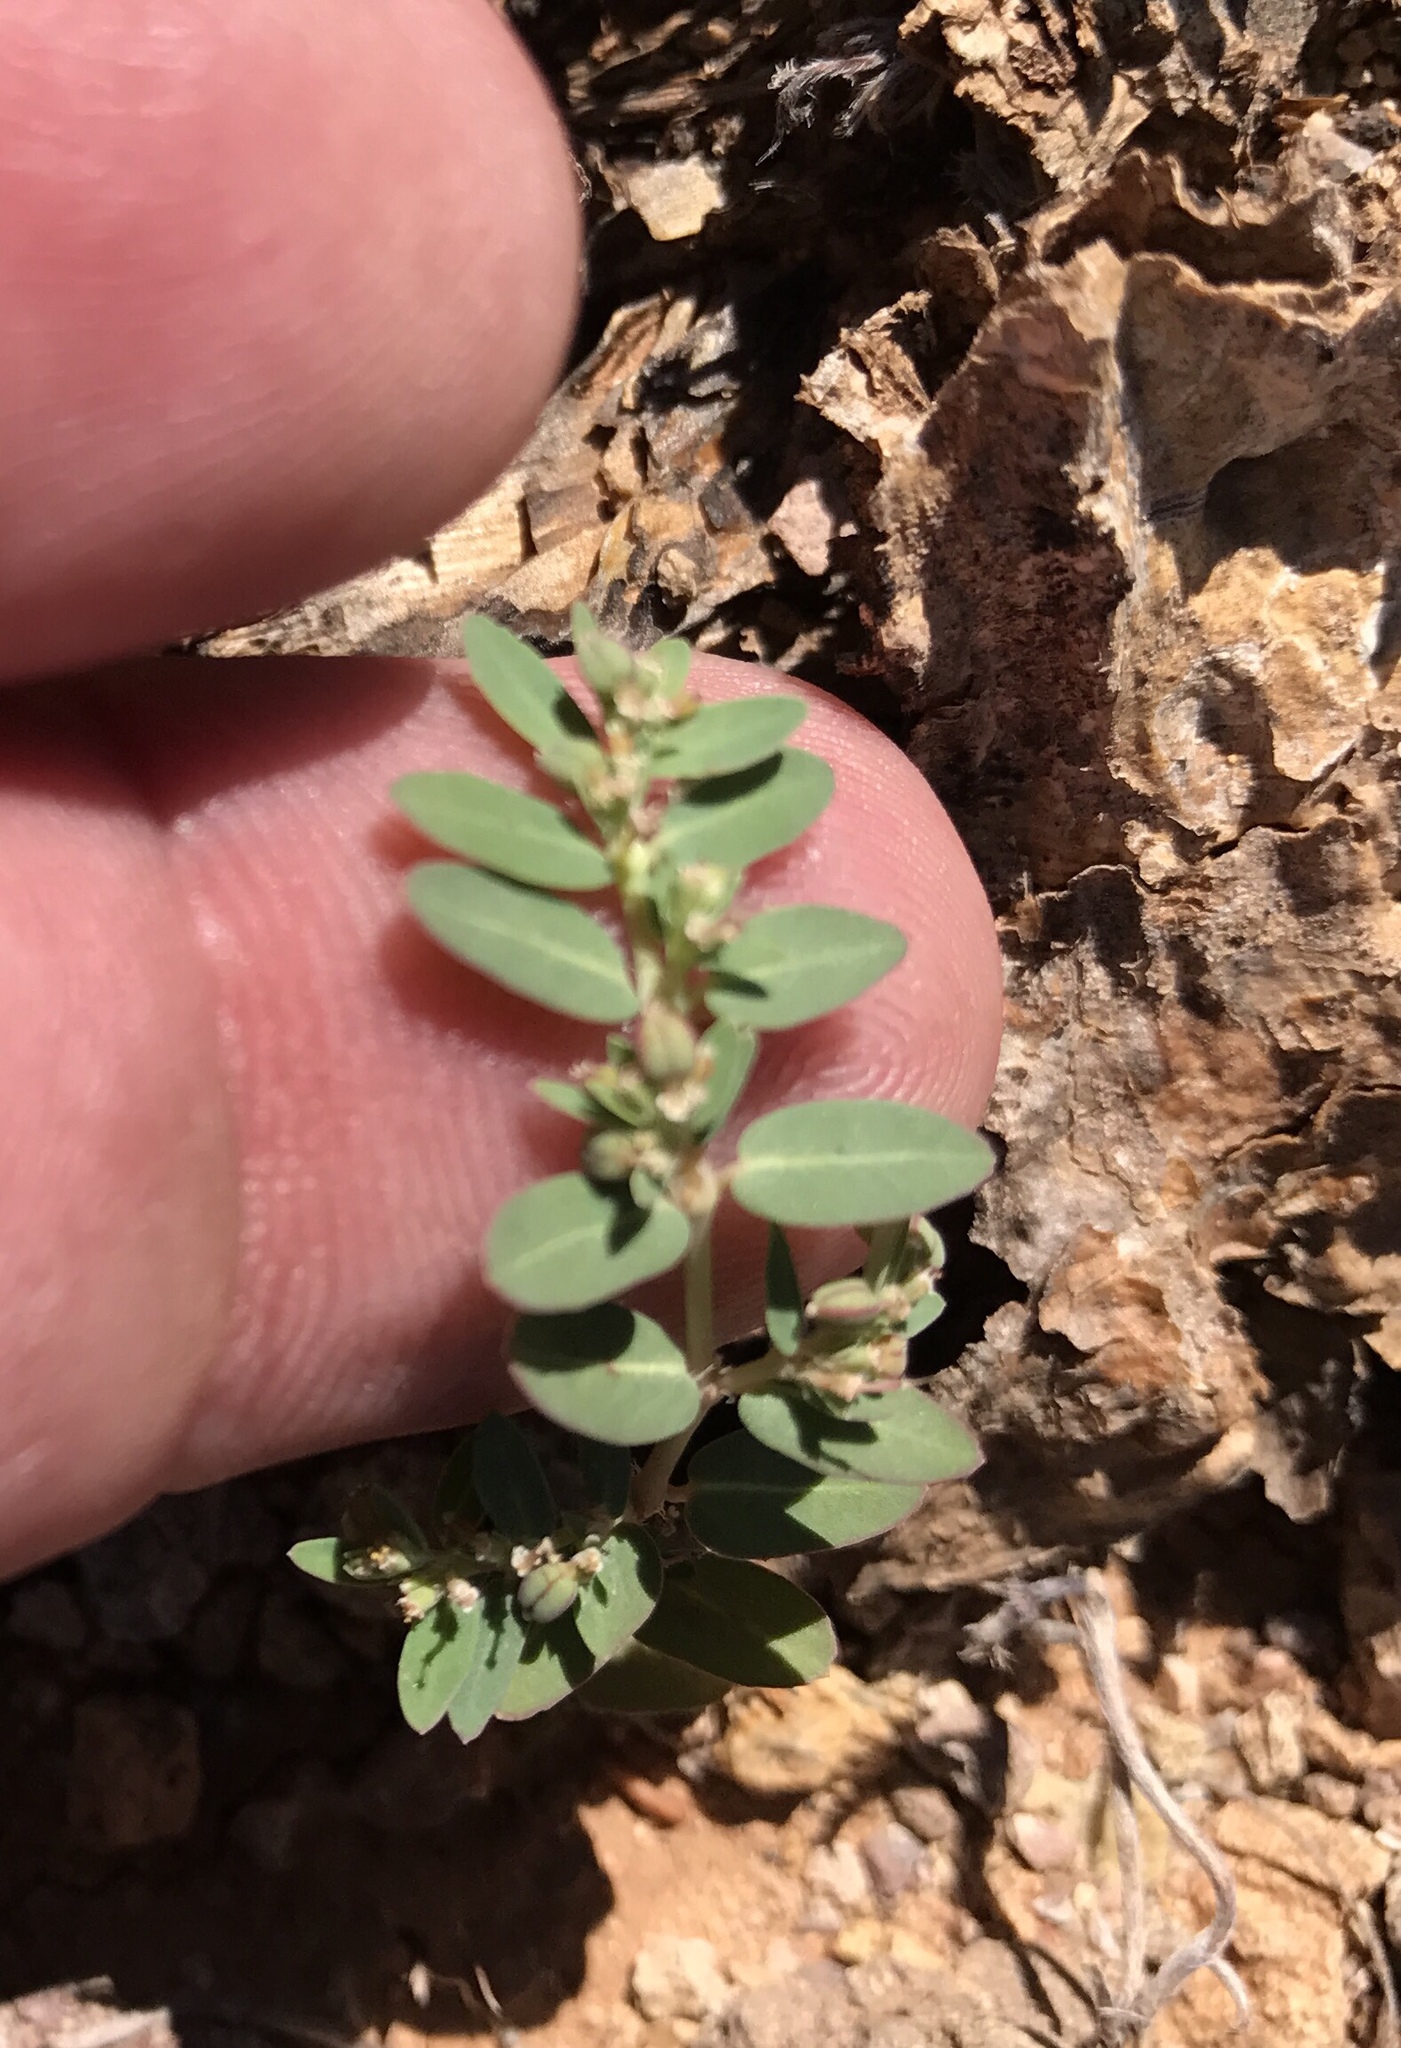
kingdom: Plantae
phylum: Tracheophyta
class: Magnoliopsida
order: Malpighiales
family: Euphorbiaceae
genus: Euphorbia
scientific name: Euphorbia abramsiana
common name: Abram's spurge
